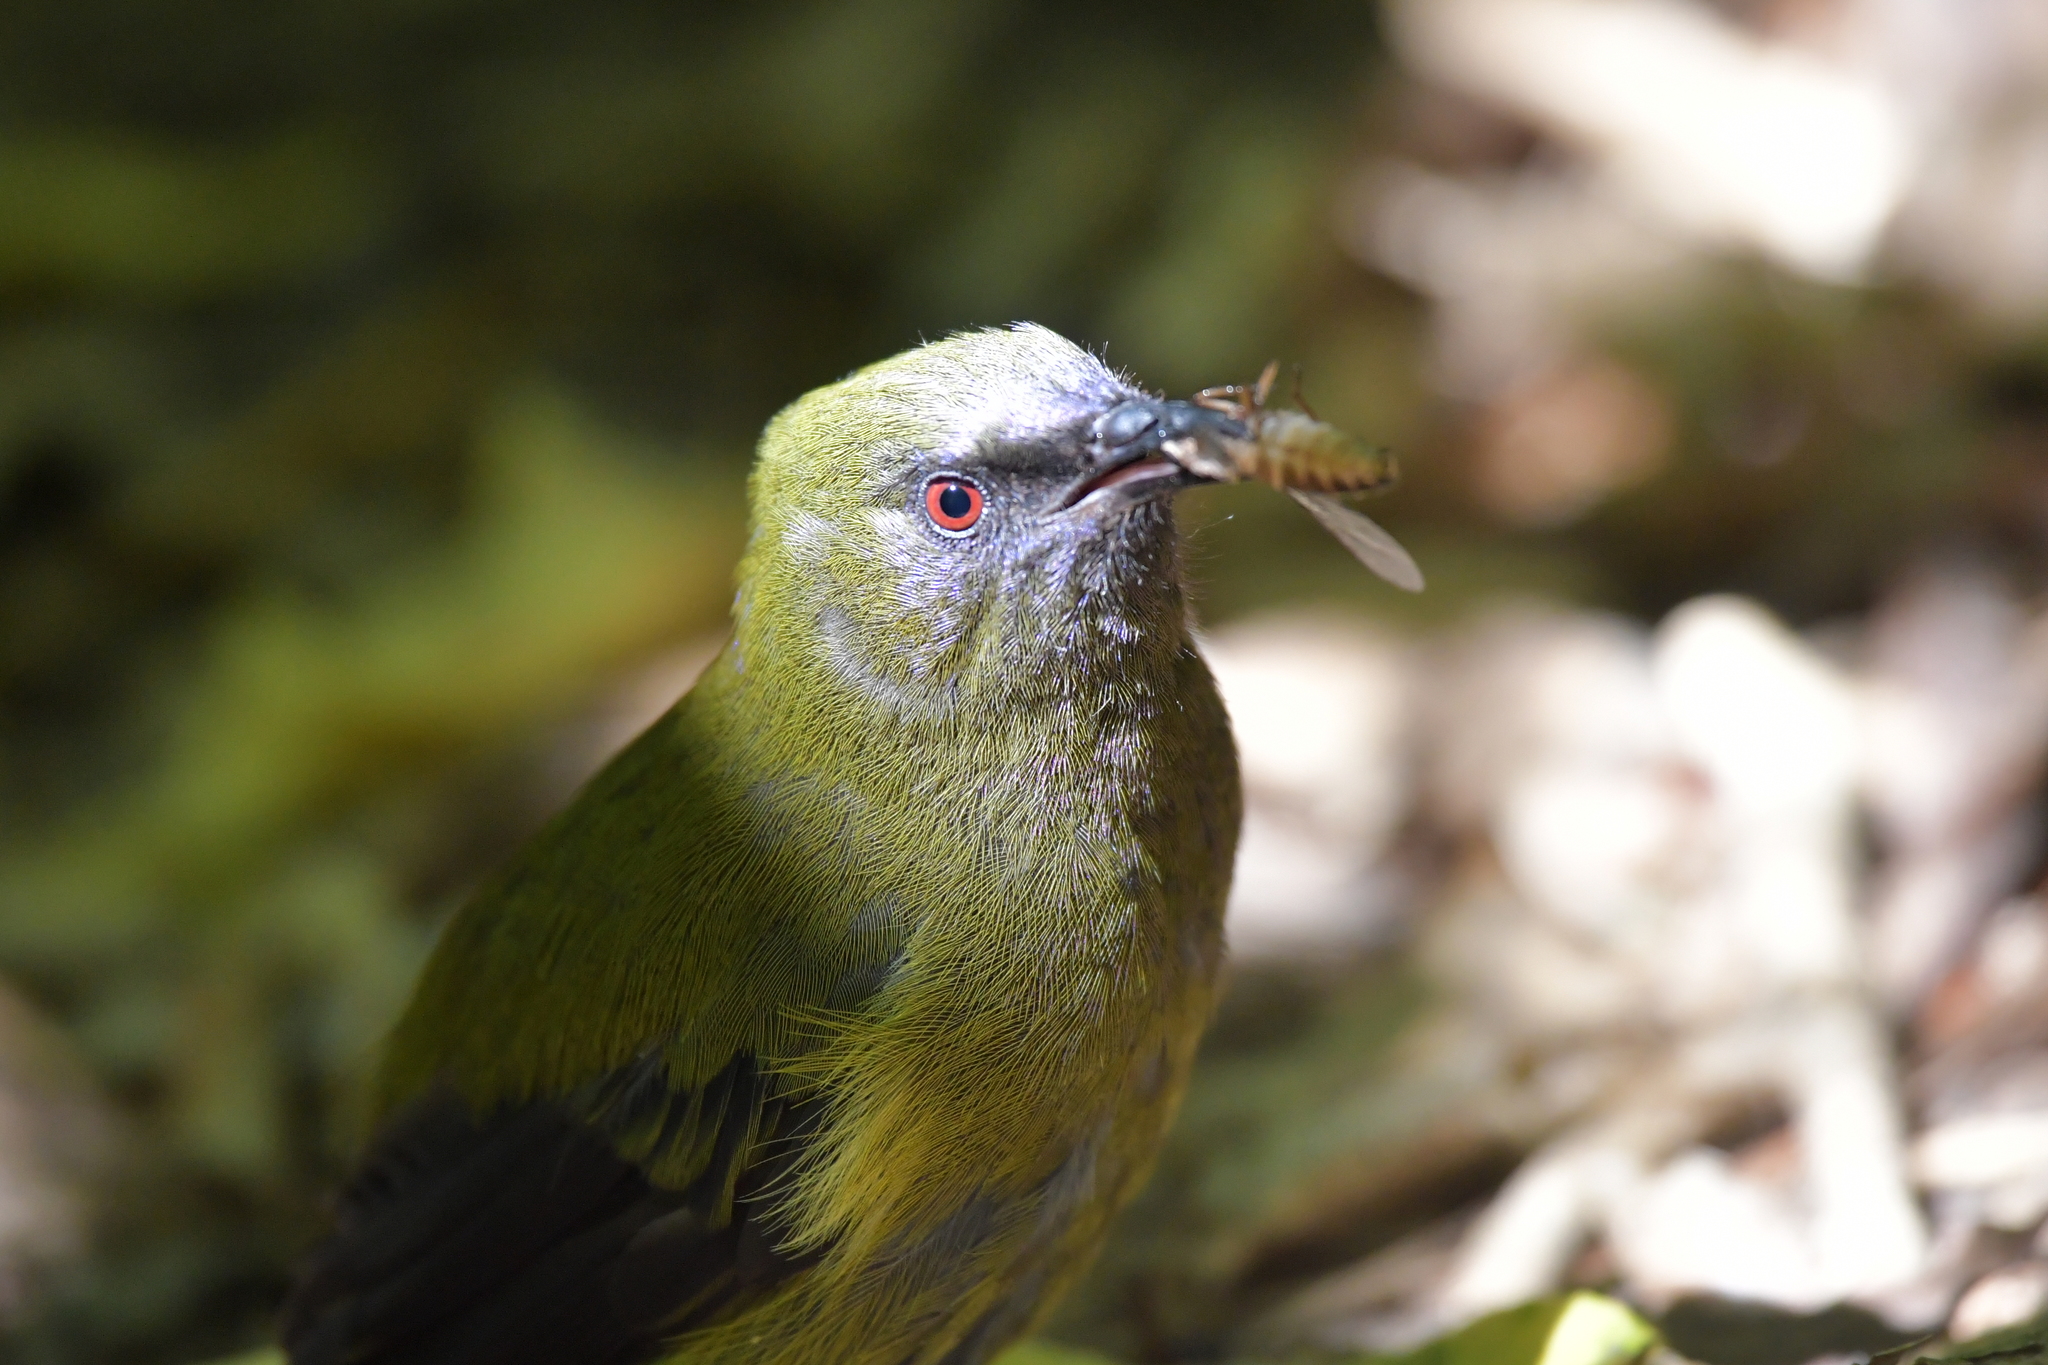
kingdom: Animalia
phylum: Chordata
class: Aves
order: Passeriformes
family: Meliphagidae
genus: Anthornis
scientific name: Anthornis melanura
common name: New zealand bellbird
